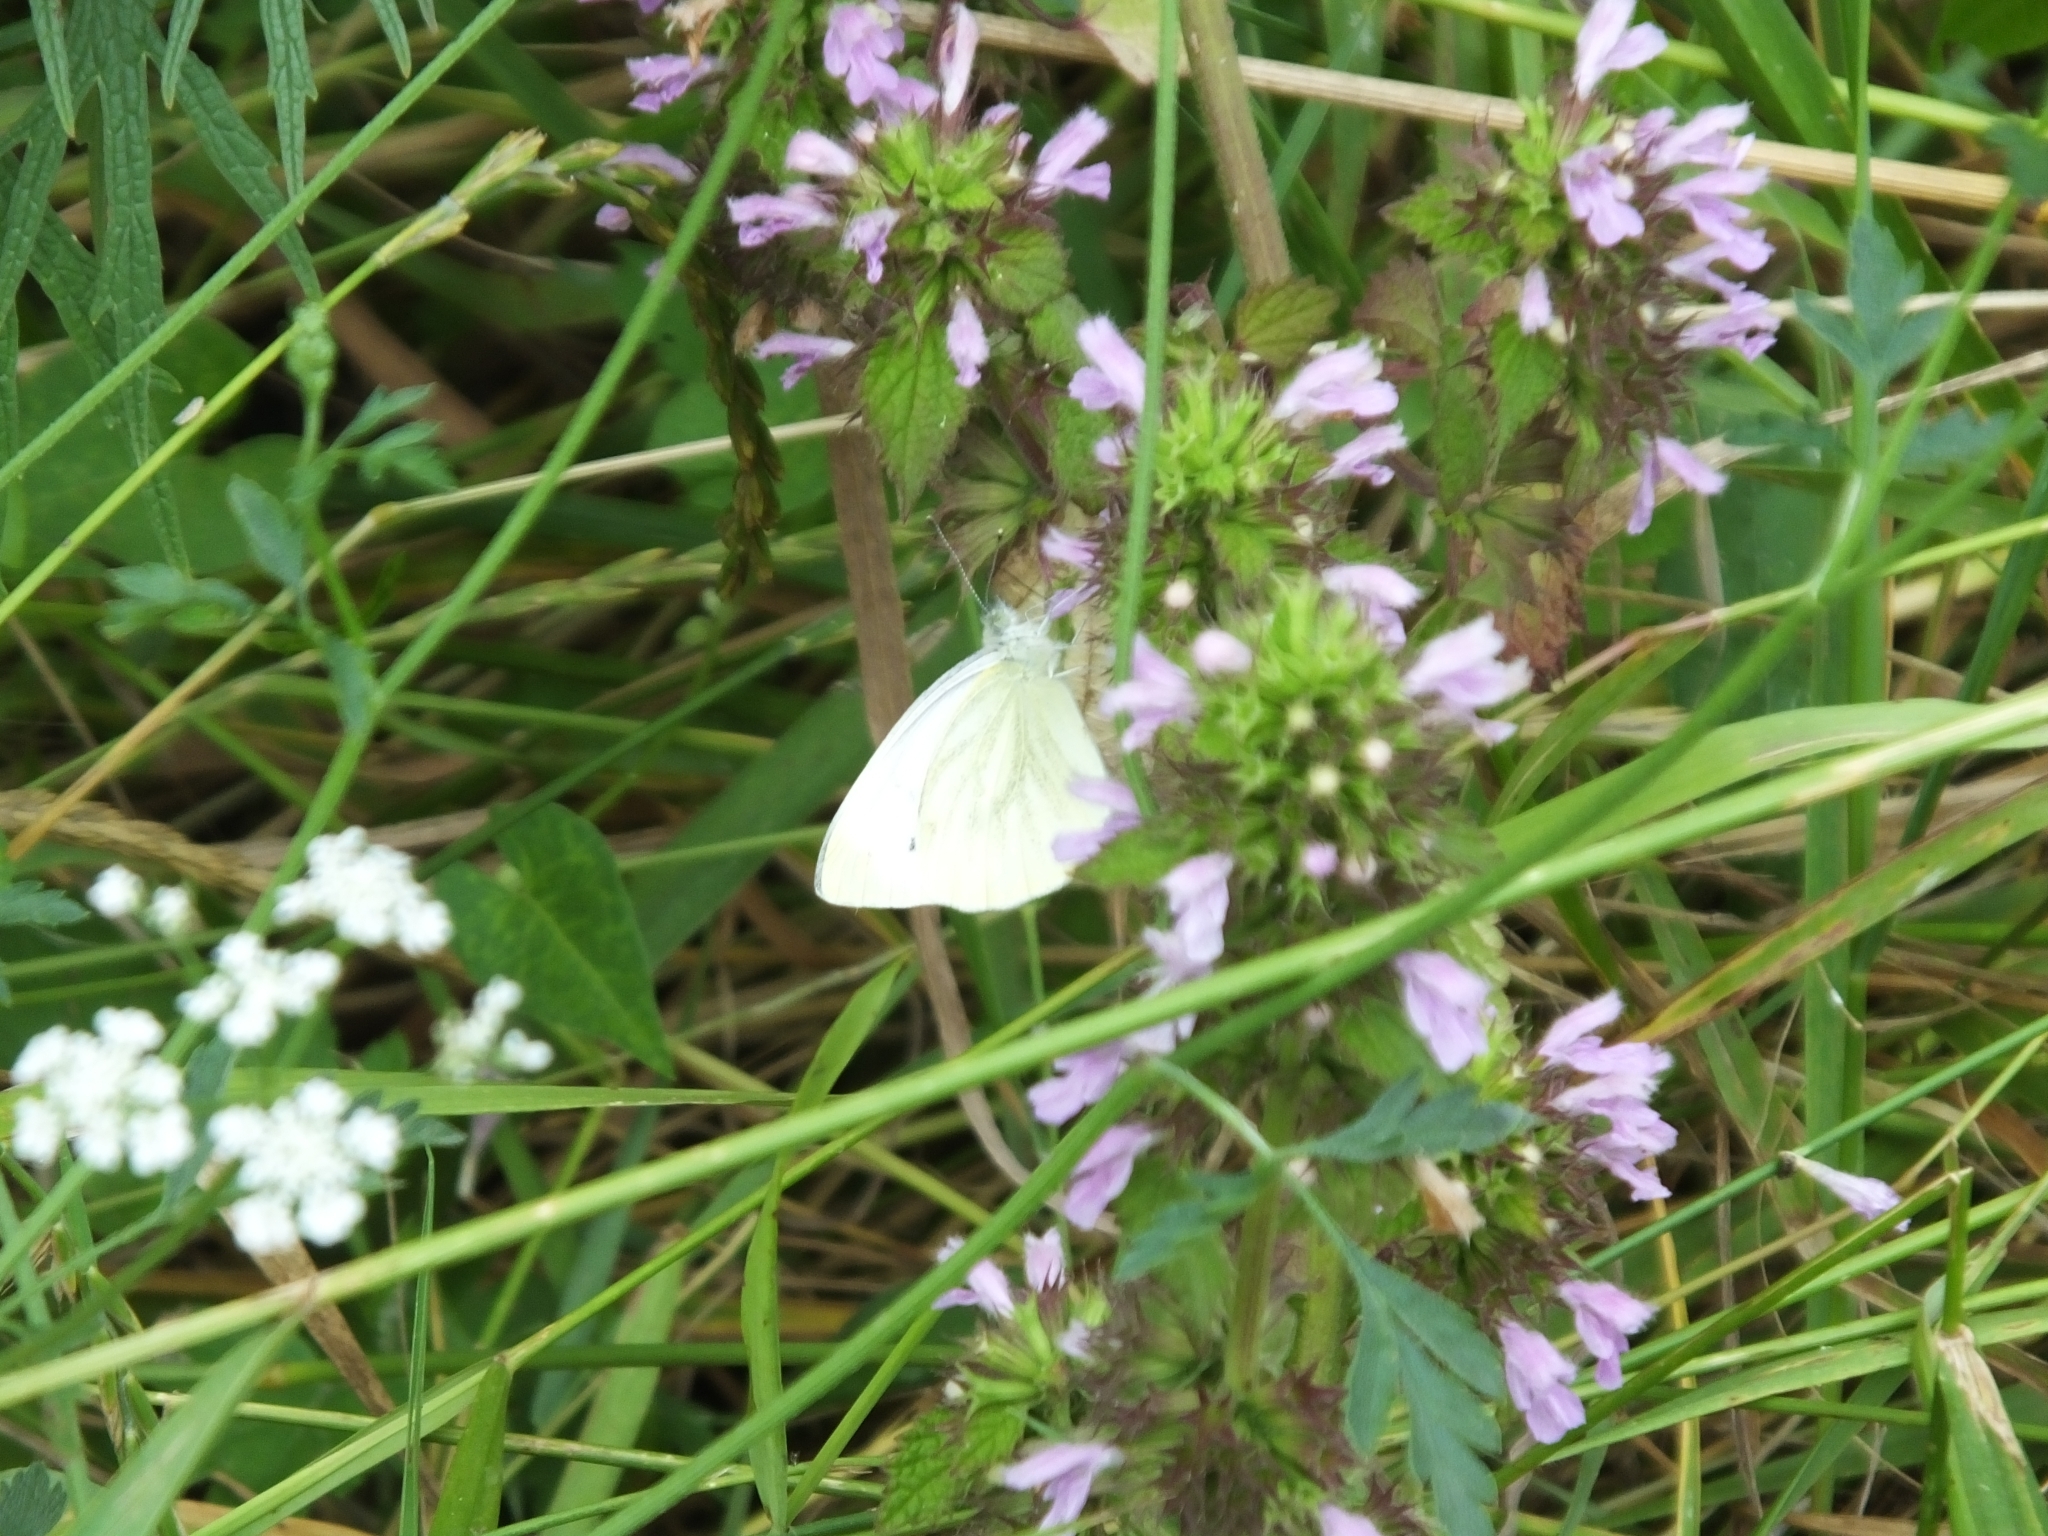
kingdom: Animalia
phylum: Arthropoda
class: Insecta
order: Lepidoptera
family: Pieridae
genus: Pieris
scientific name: Pieris napi
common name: Green-veined white
